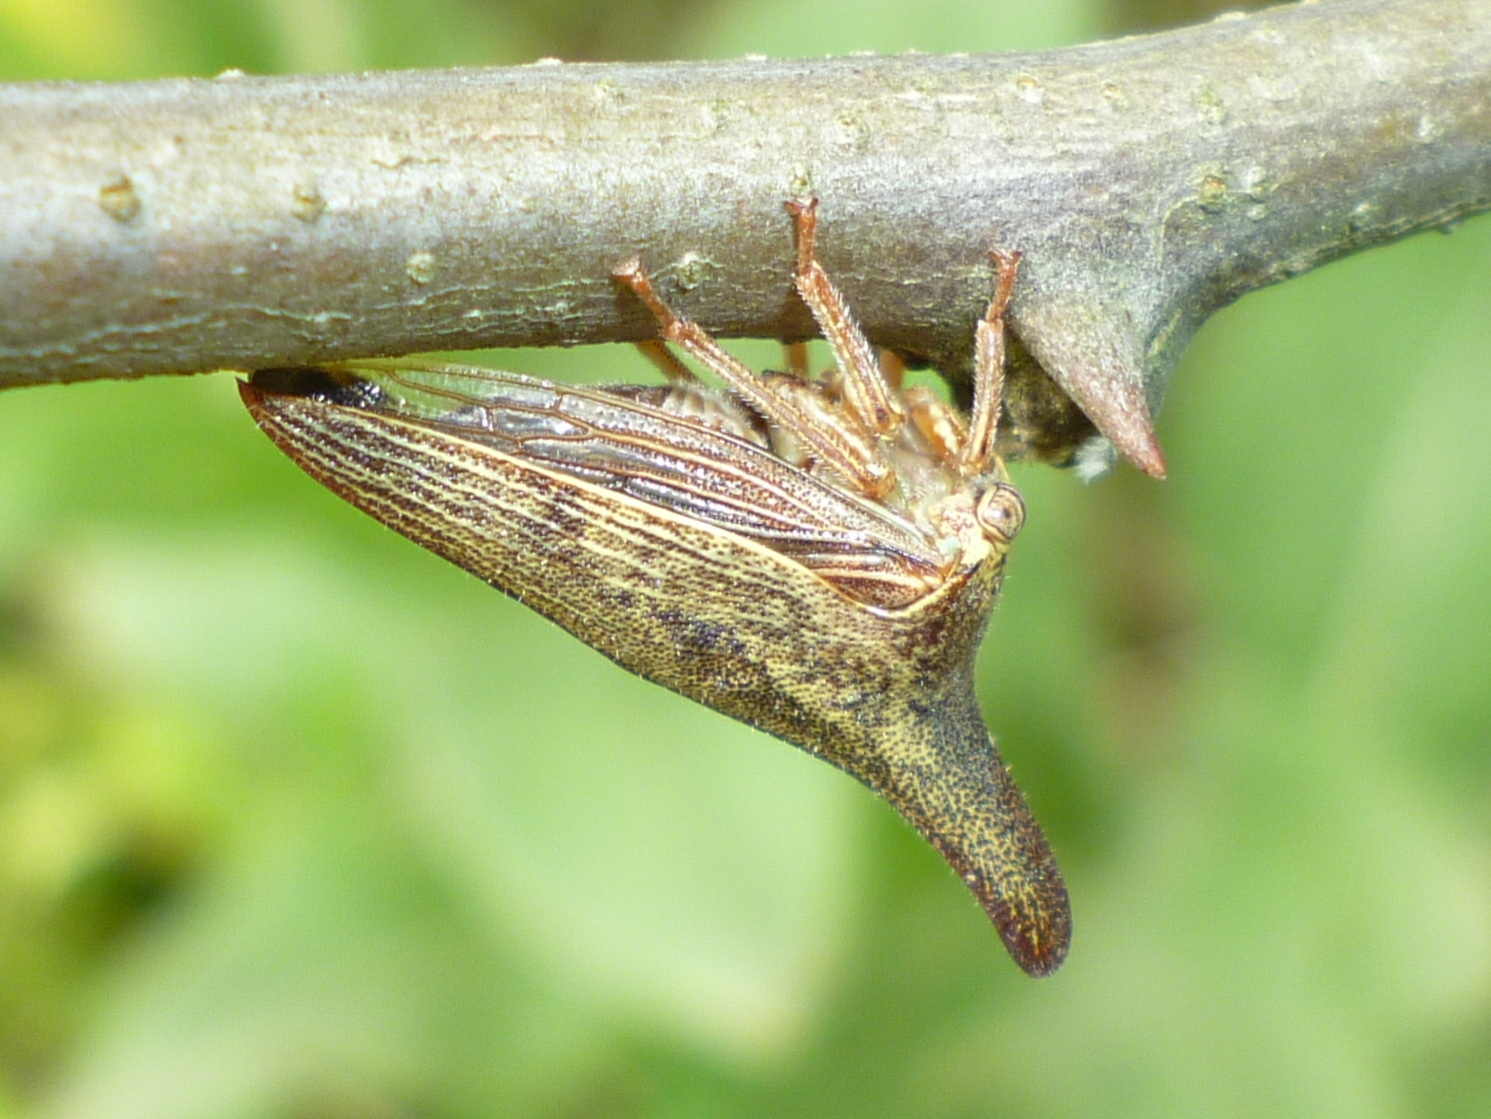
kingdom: Animalia
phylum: Arthropoda
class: Insecta
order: Hemiptera
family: Membracidae
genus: Thelia
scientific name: Thelia bimaculata
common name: Locust treehopper
